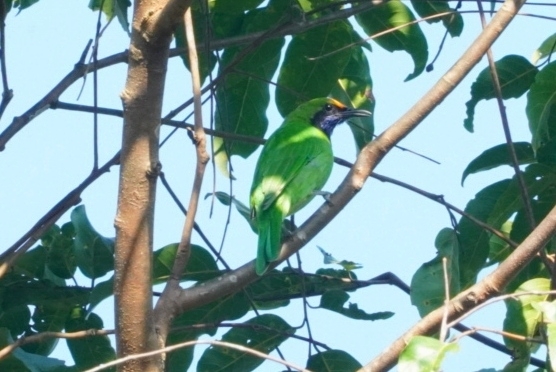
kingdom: Animalia
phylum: Chordata
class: Aves
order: Passeriformes
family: Chloropseidae
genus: Chloropsis
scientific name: Chloropsis aurifrons
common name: Golden-fronted leafbird
